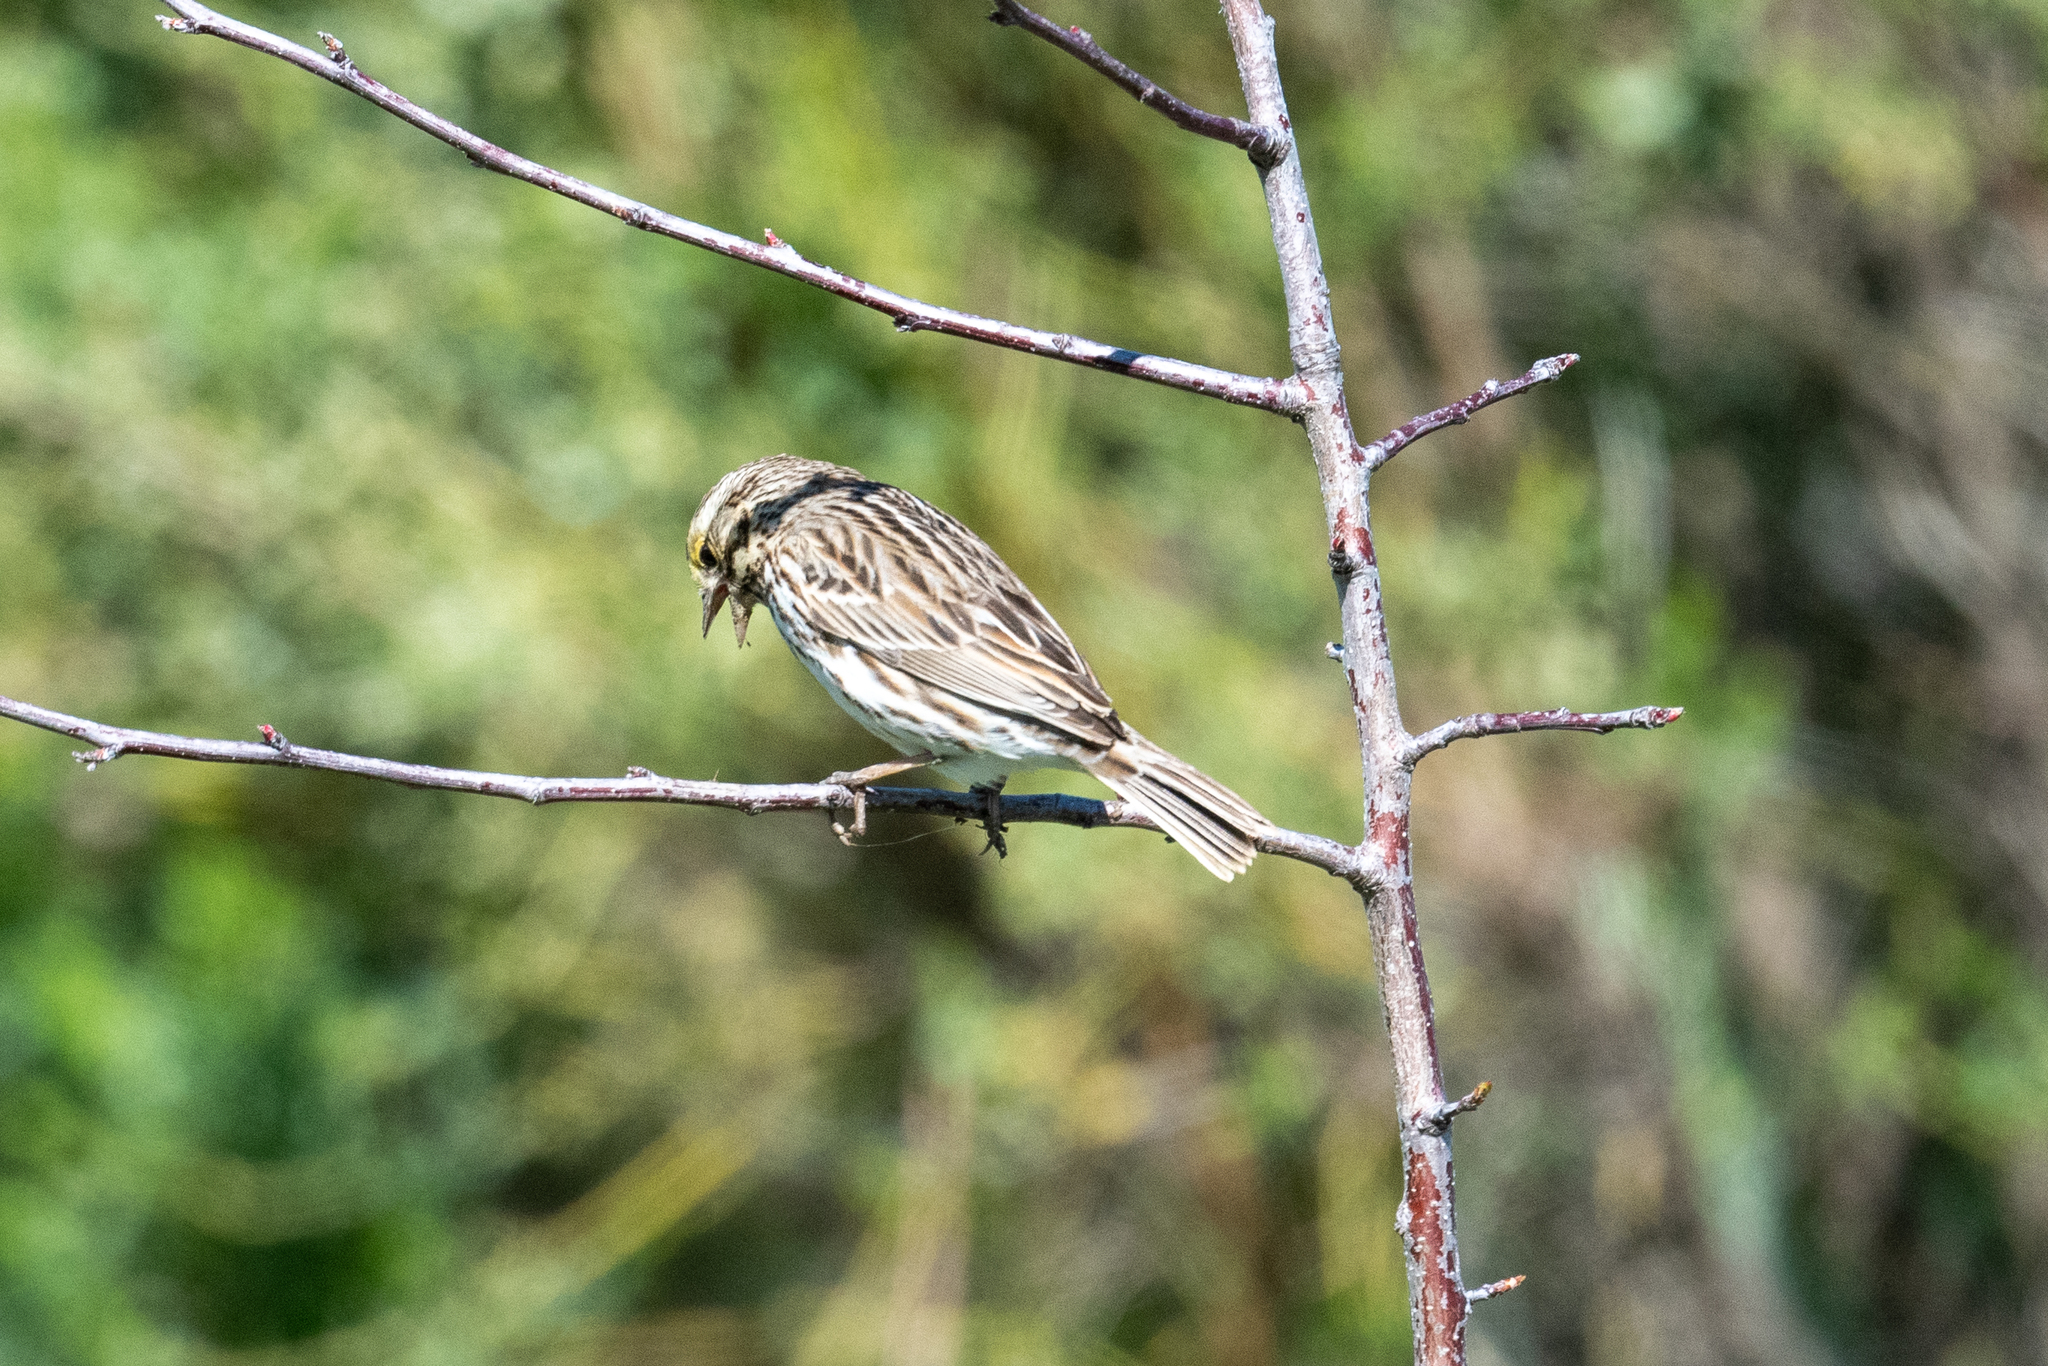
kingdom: Animalia
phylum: Chordata
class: Aves
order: Passeriformes
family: Passerellidae
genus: Passerculus
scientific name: Passerculus sandwichensis
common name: Savannah sparrow
